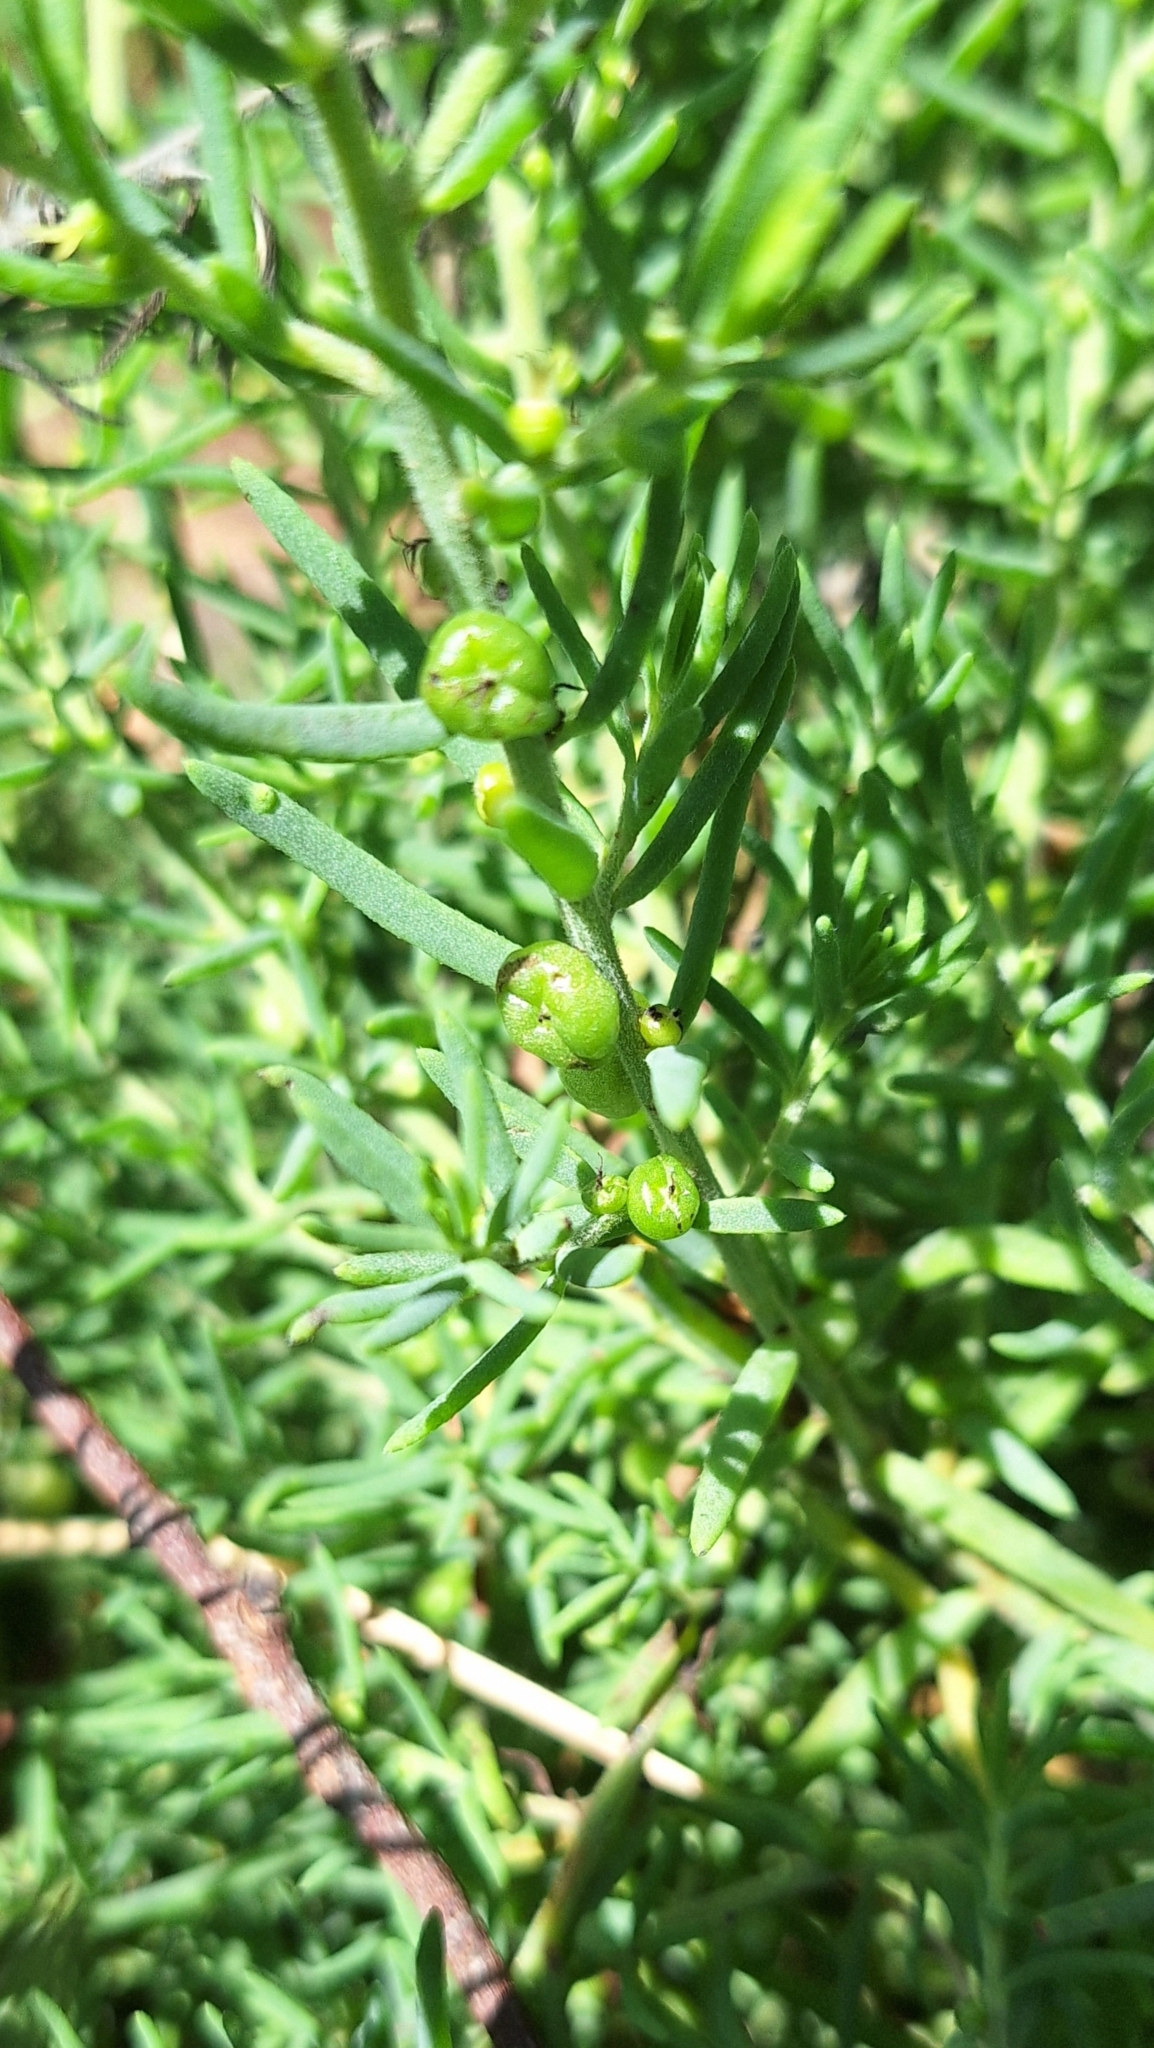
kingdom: Plantae
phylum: Tracheophyta
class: Magnoliopsida
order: Caryophyllales
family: Amaranthaceae
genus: Enchylaena
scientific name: Enchylaena tomentosa
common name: Ruby saltbush
